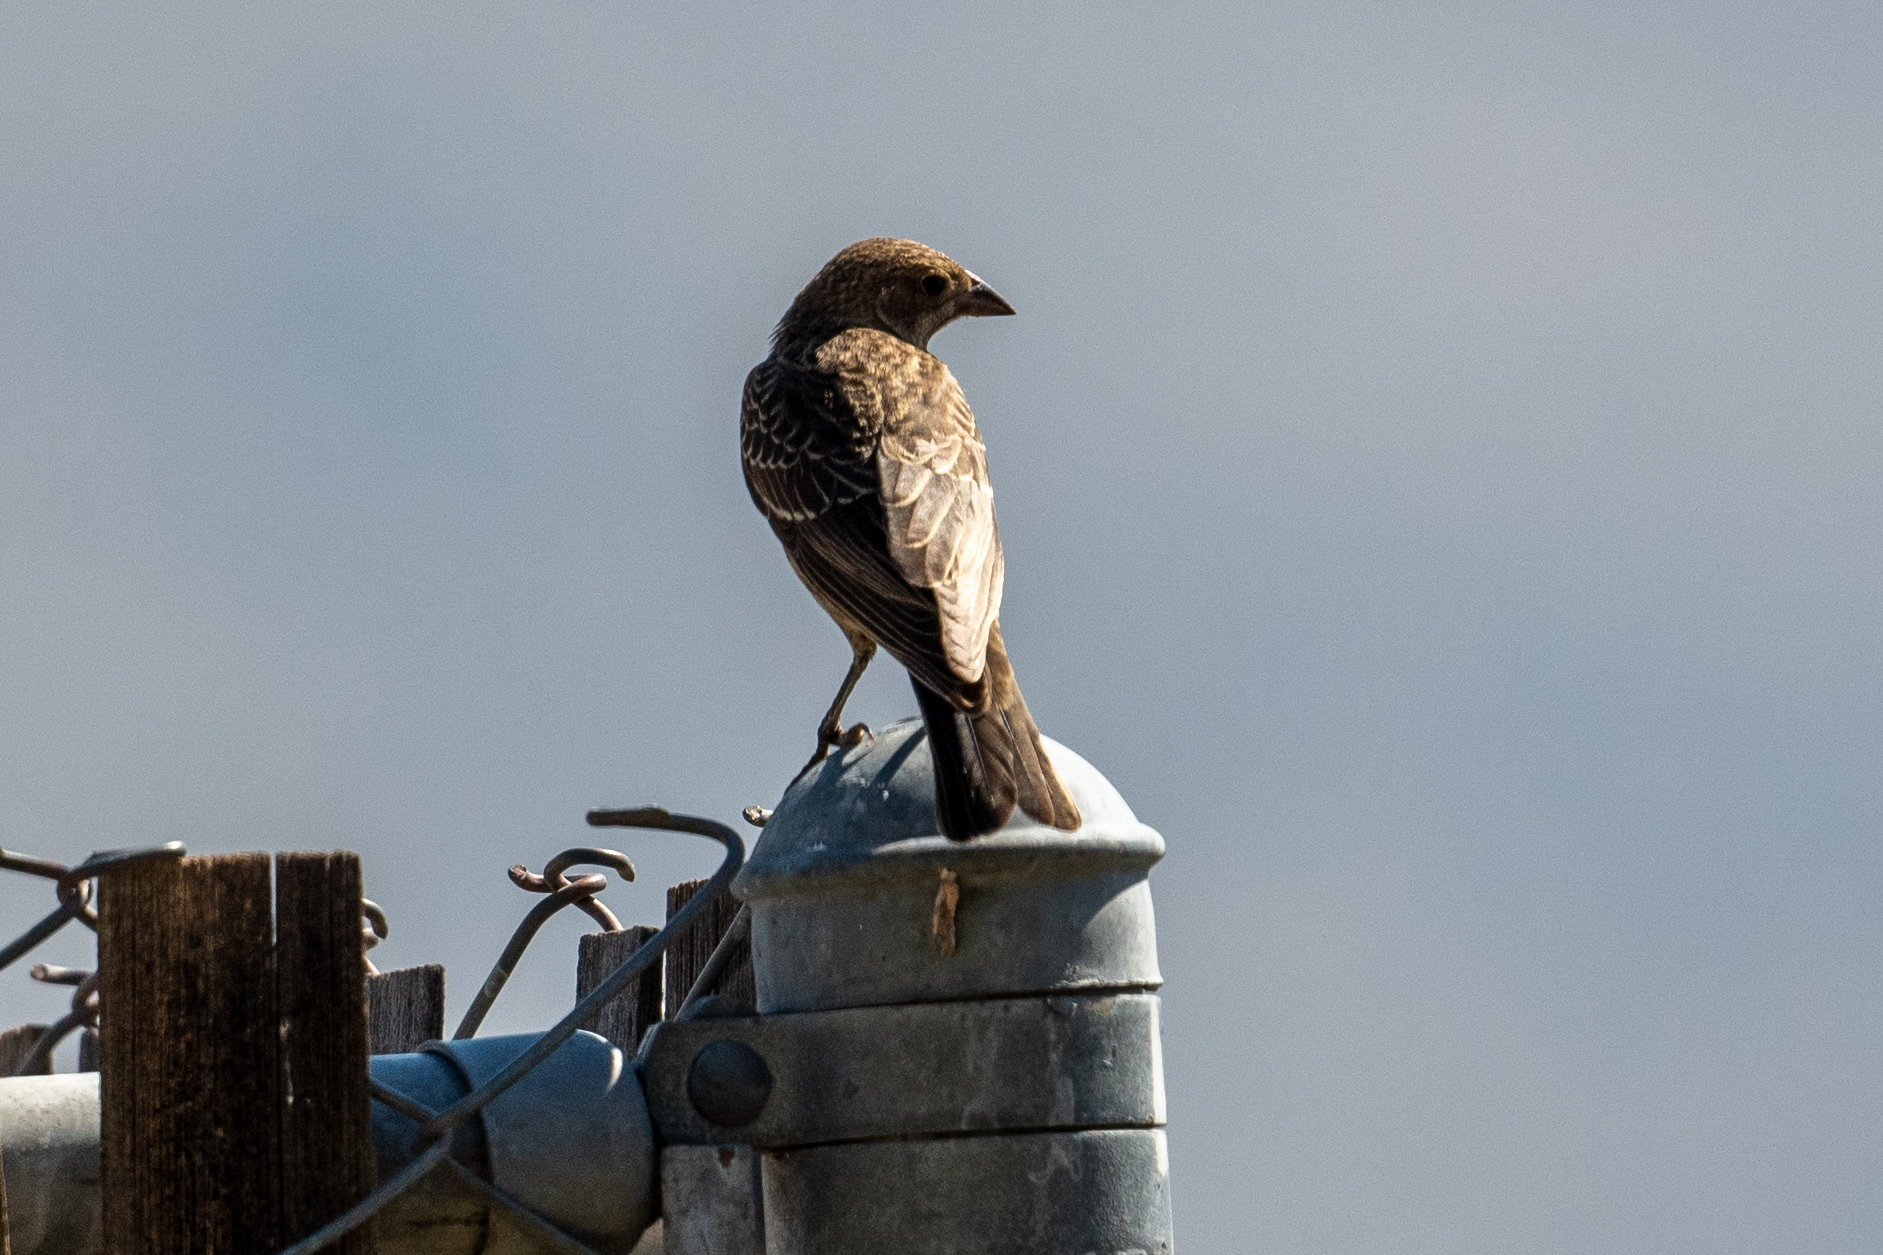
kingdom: Animalia
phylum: Chordata
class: Aves
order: Passeriformes
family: Icteridae
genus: Molothrus
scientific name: Molothrus ater
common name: Brown-headed cowbird
